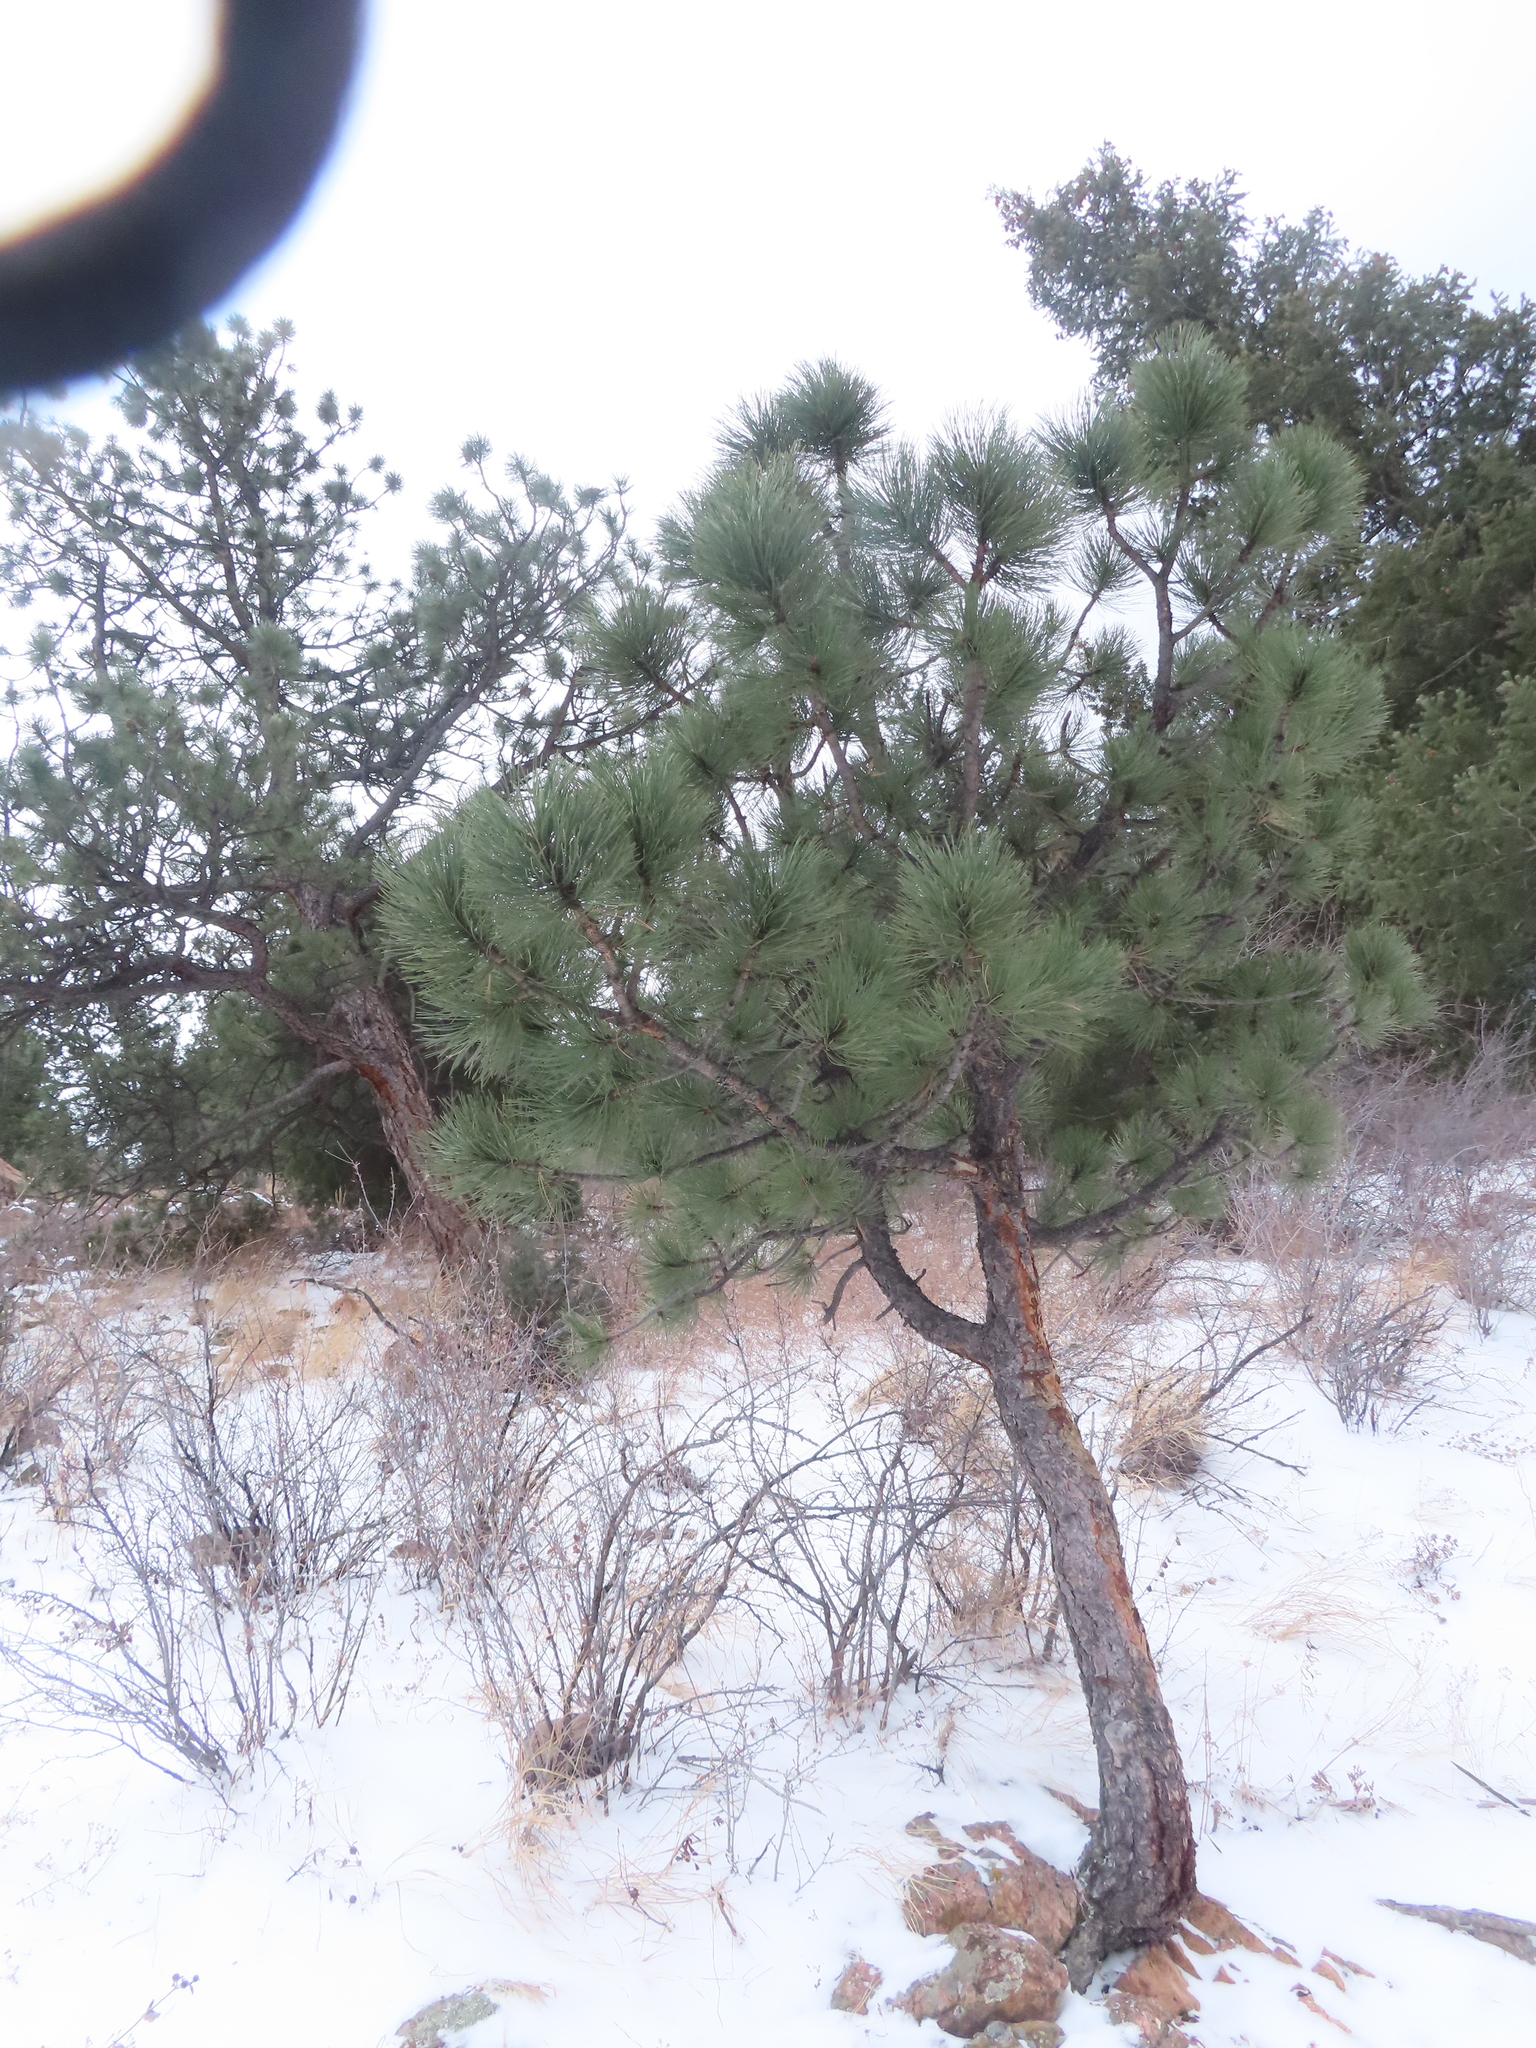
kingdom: Plantae
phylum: Tracheophyta
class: Pinopsida
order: Pinales
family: Pinaceae
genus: Pinus
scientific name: Pinus ponderosa
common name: Western yellow-pine
